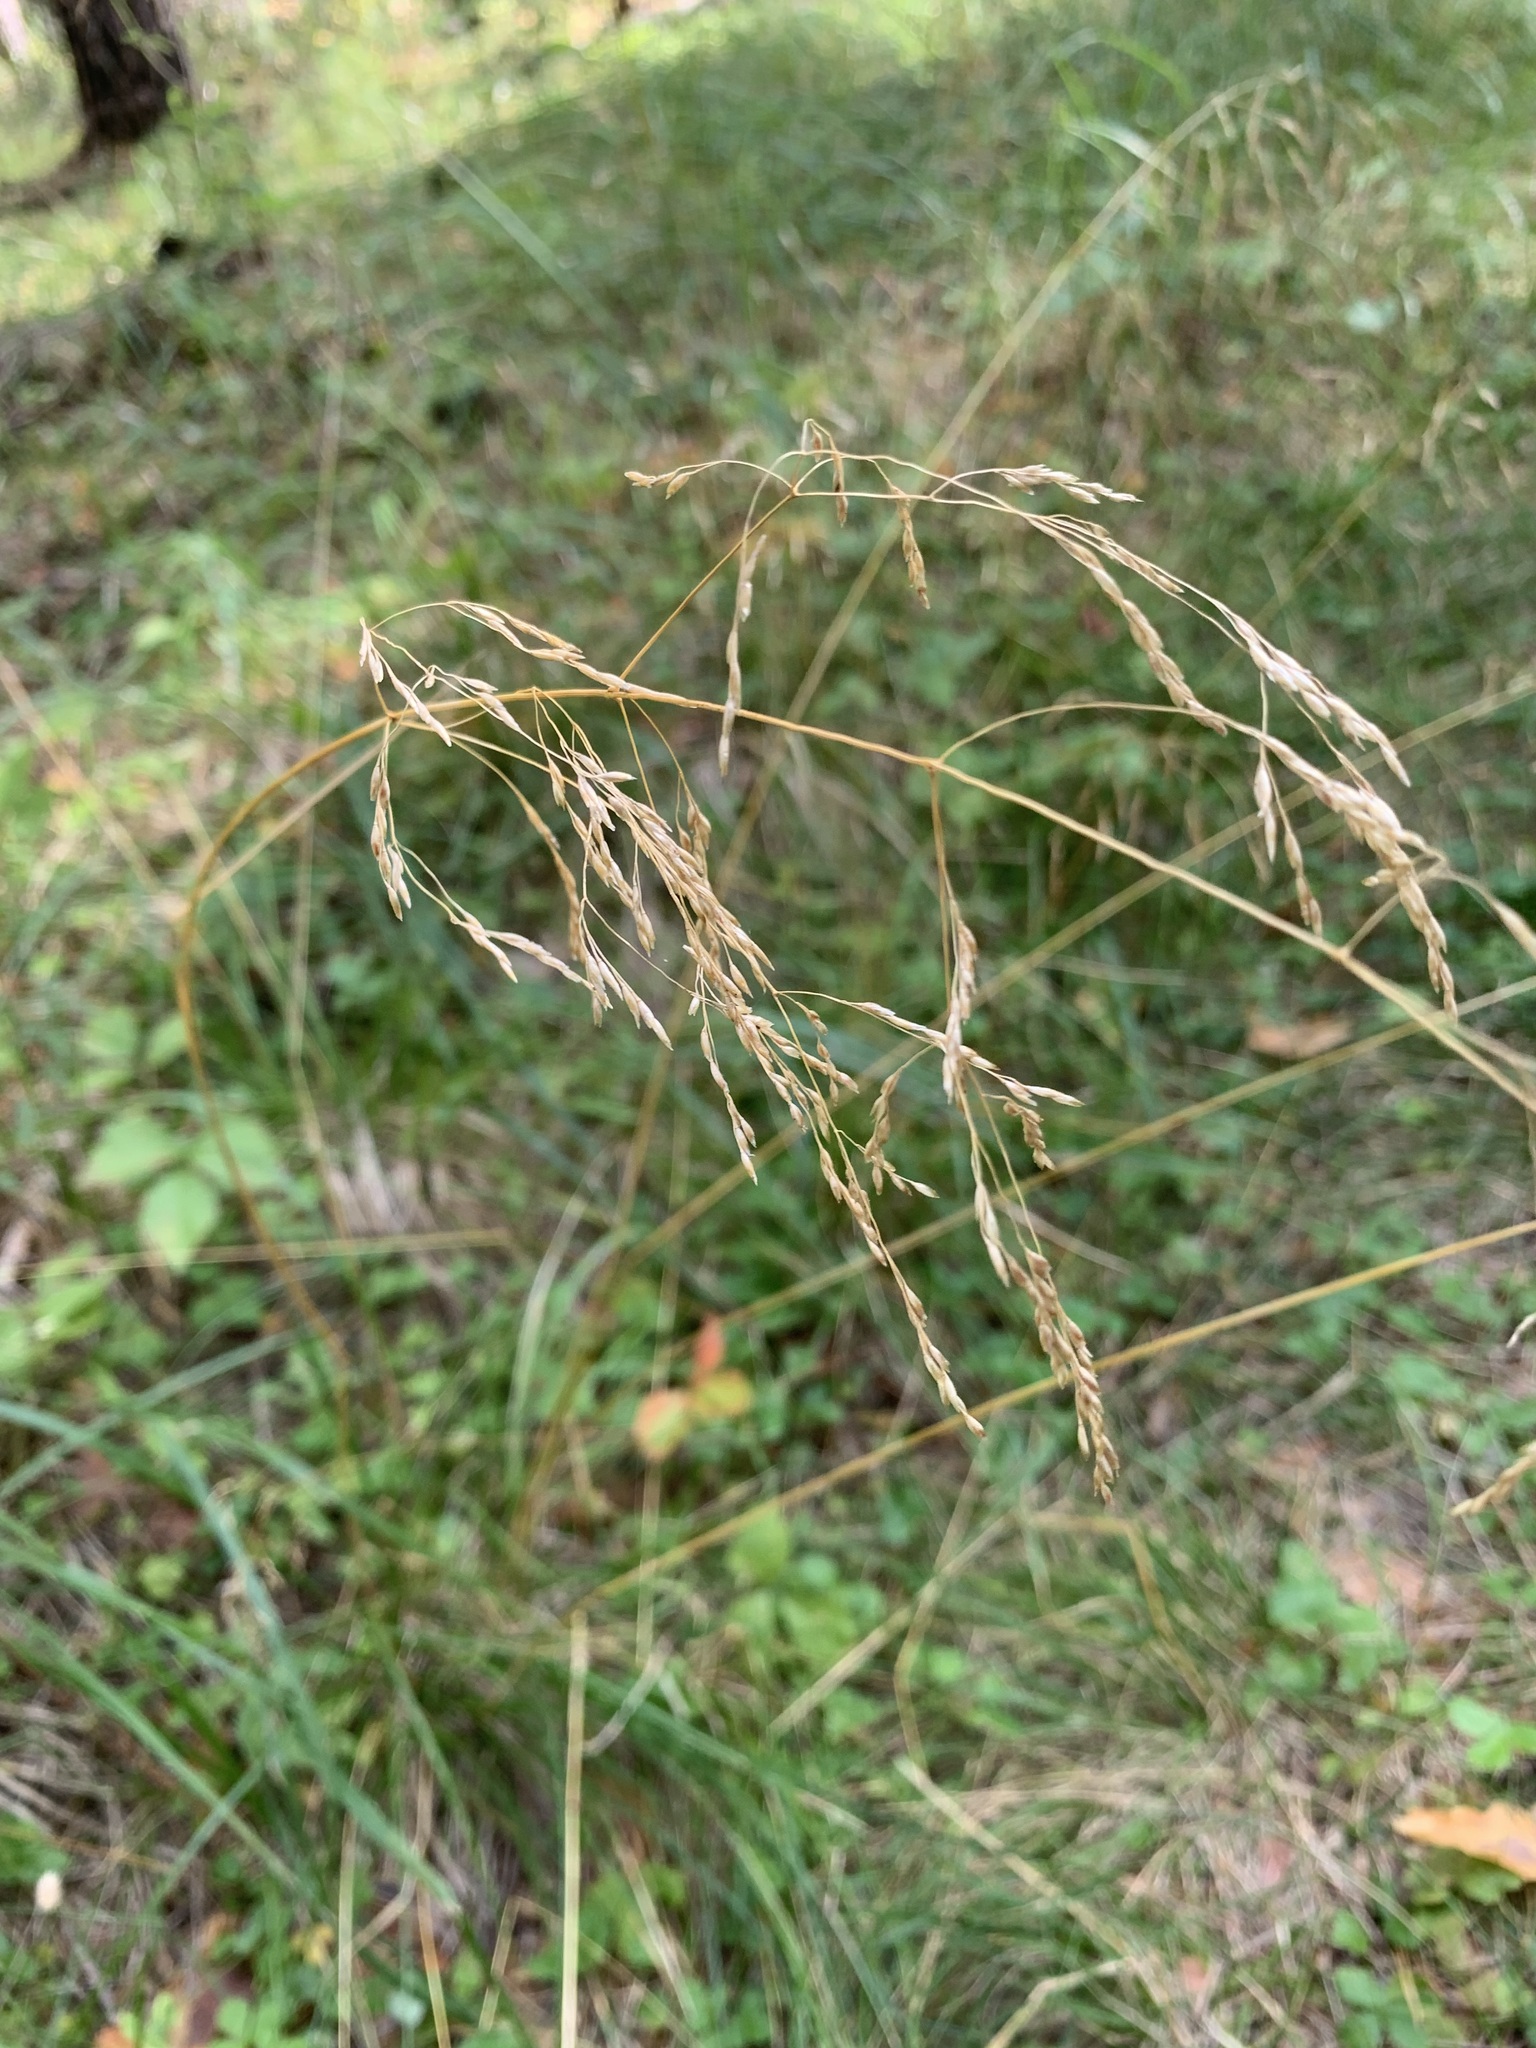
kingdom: Plantae
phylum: Tracheophyta
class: Liliopsida
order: Poales
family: Poaceae
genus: Deschampsia
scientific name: Deschampsia cespitosa
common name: Tufted hair-grass
